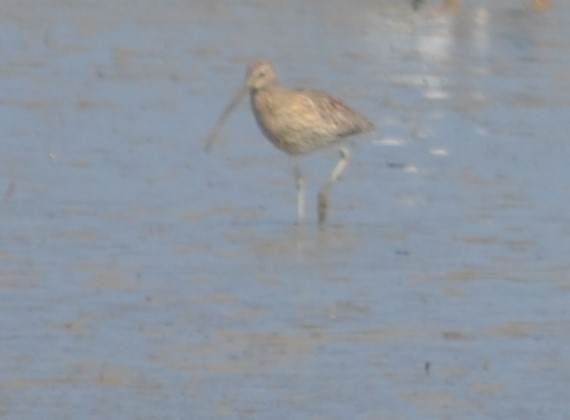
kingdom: Animalia
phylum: Chordata
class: Aves
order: Charadriiformes
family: Scolopacidae
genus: Numenius
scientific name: Numenius arquata
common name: Eurasian curlew
